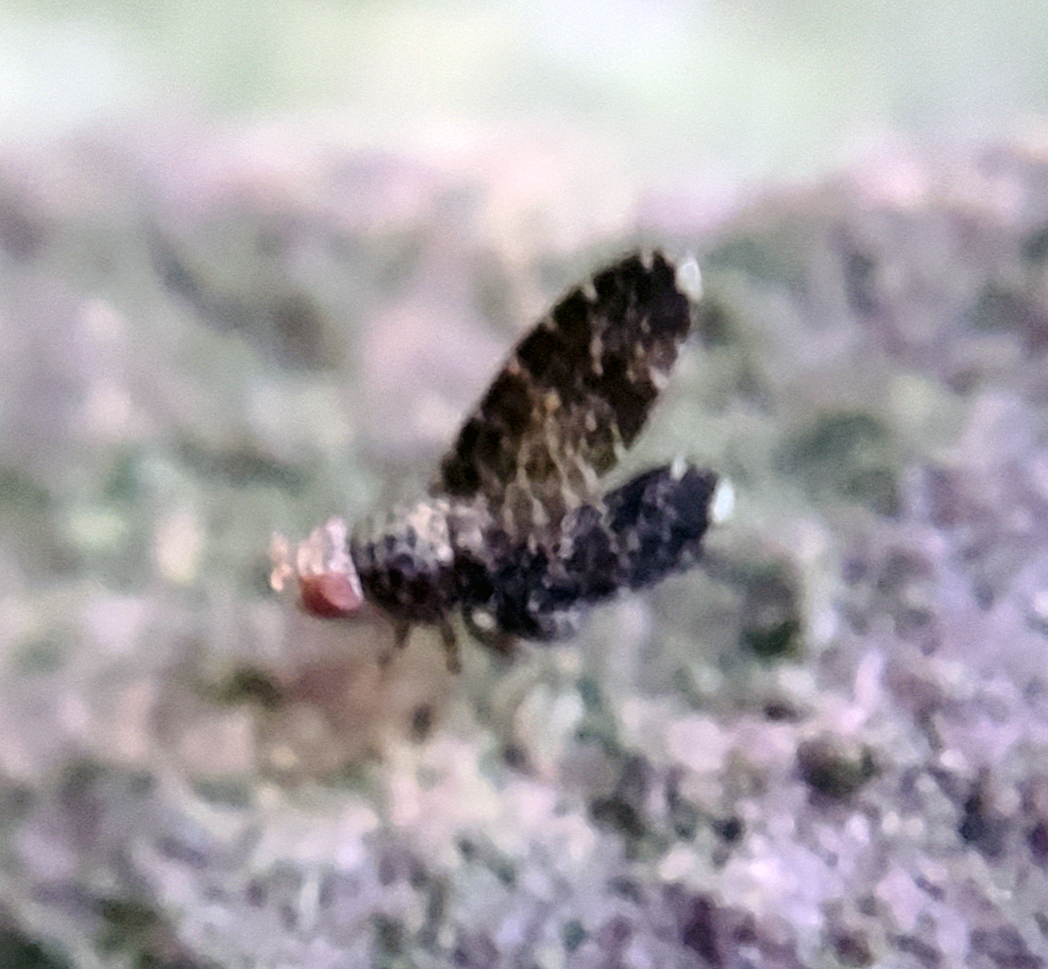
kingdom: Animalia
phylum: Arthropoda
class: Insecta
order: Diptera
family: Lauxaniidae
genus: Trypetisoma
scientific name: Trypetisoma sticticum
